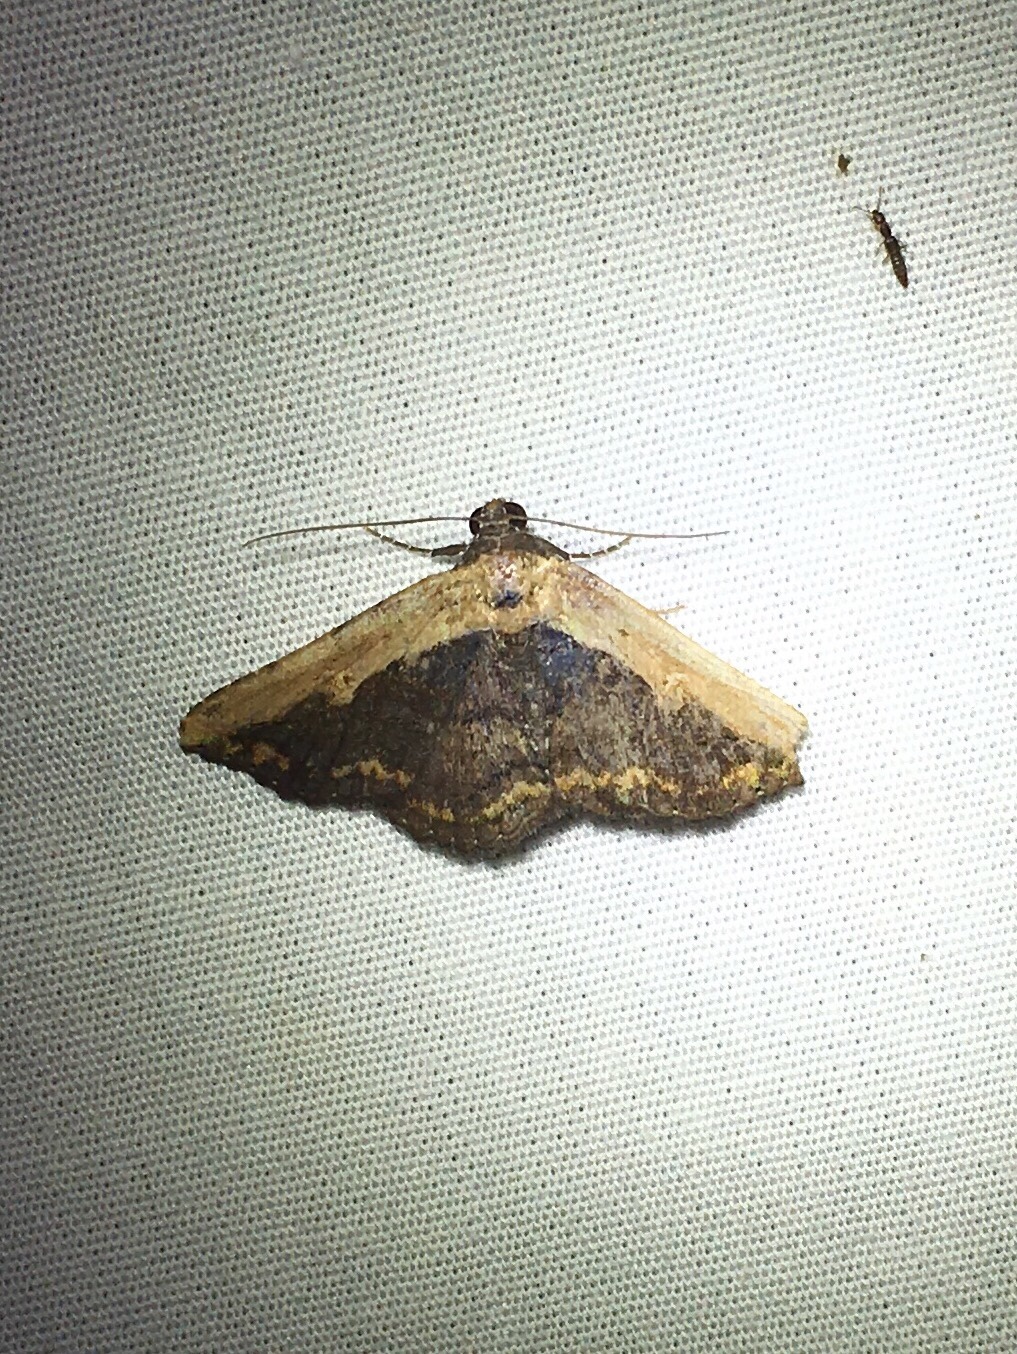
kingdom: Animalia
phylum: Arthropoda
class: Insecta
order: Lepidoptera
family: Erebidae
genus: Selenisa
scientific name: Selenisa sueroides
